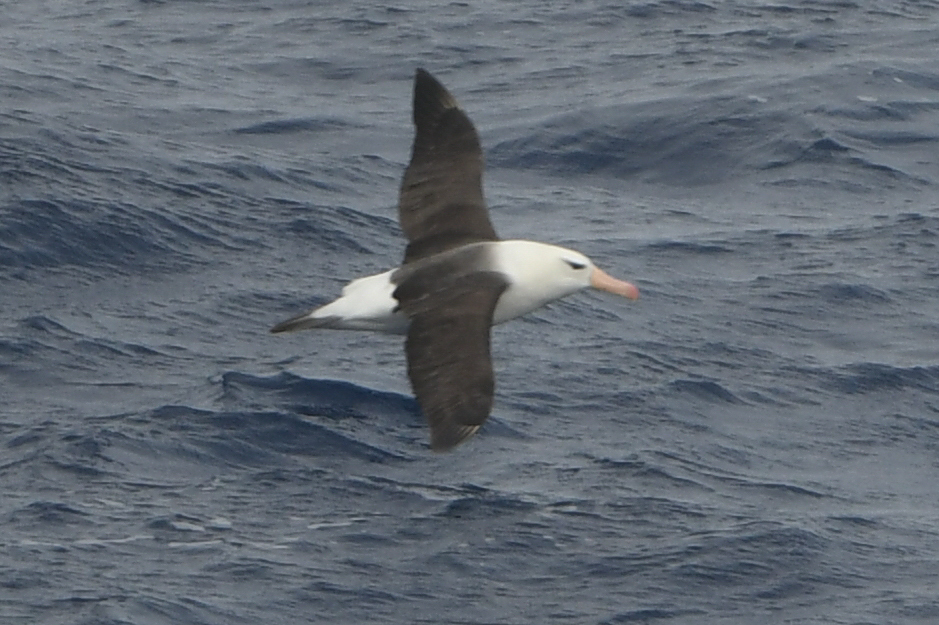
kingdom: Animalia
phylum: Chordata
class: Aves
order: Procellariiformes
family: Diomedeidae
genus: Thalassarche
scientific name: Thalassarche melanophris
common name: Black-browed albatross
